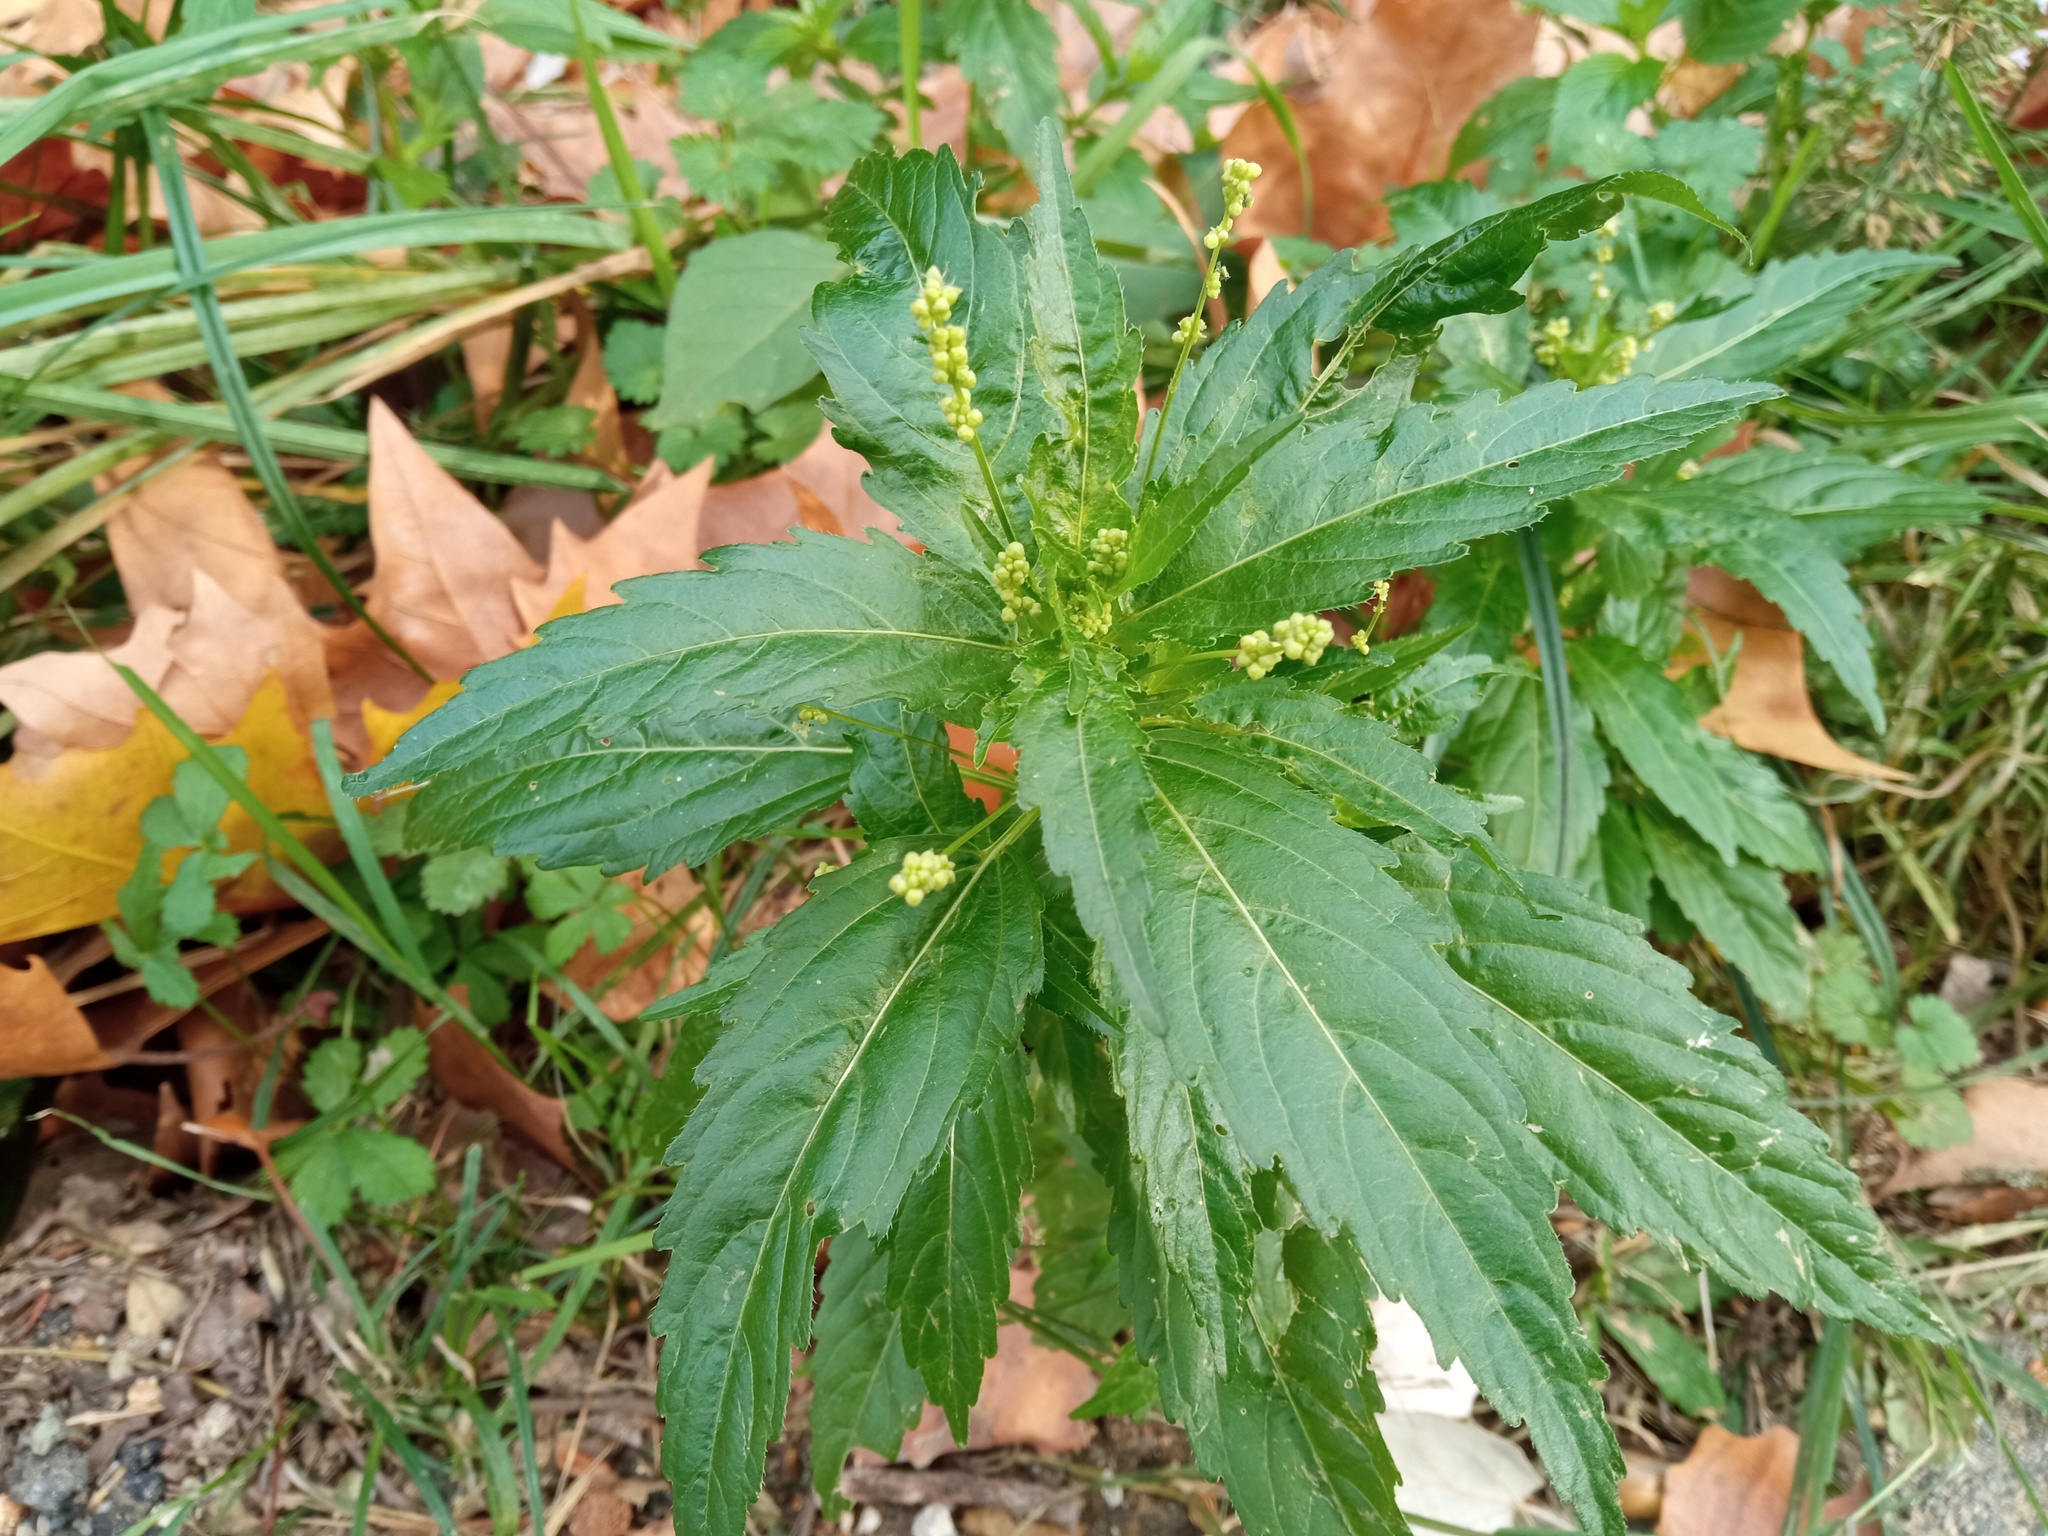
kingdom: Plantae
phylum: Tracheophyta
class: Magnoliopsida
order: Malpighiales
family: Euphorbiaceae
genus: Mercurialis
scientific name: Mercurialis annua
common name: Annual mercury
